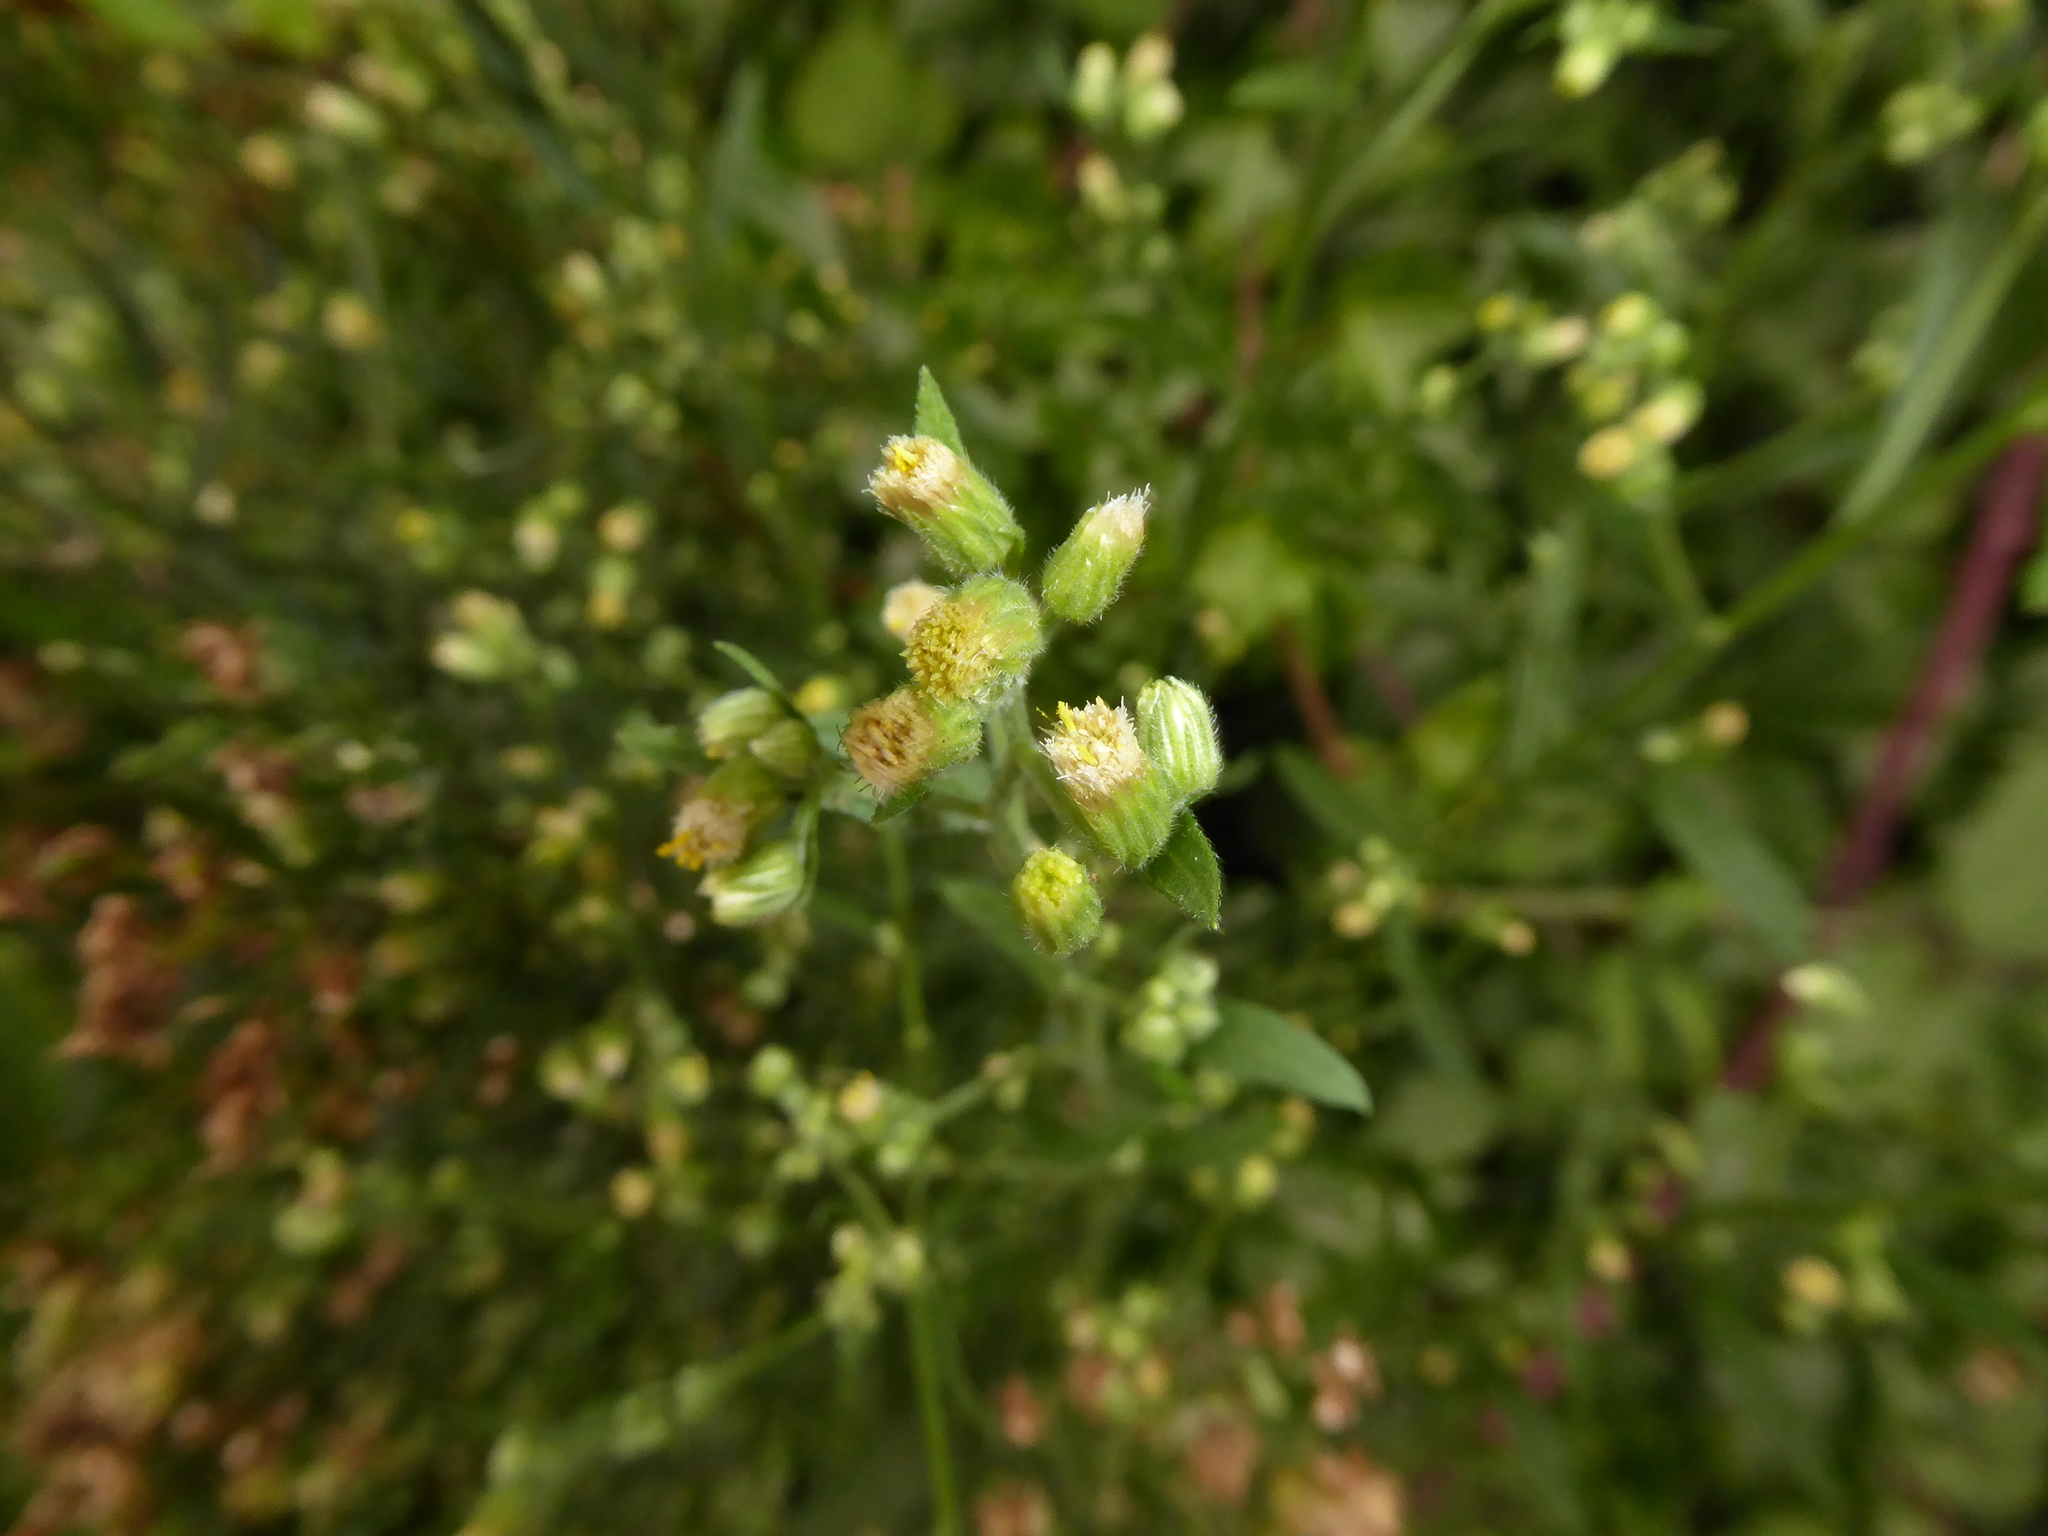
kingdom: Plantae
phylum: Tracheophyta
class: Magnoliopsida
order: Asterales
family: Asteraceae
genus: Erigeron
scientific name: Erigeron sumatrensis
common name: Daisy
